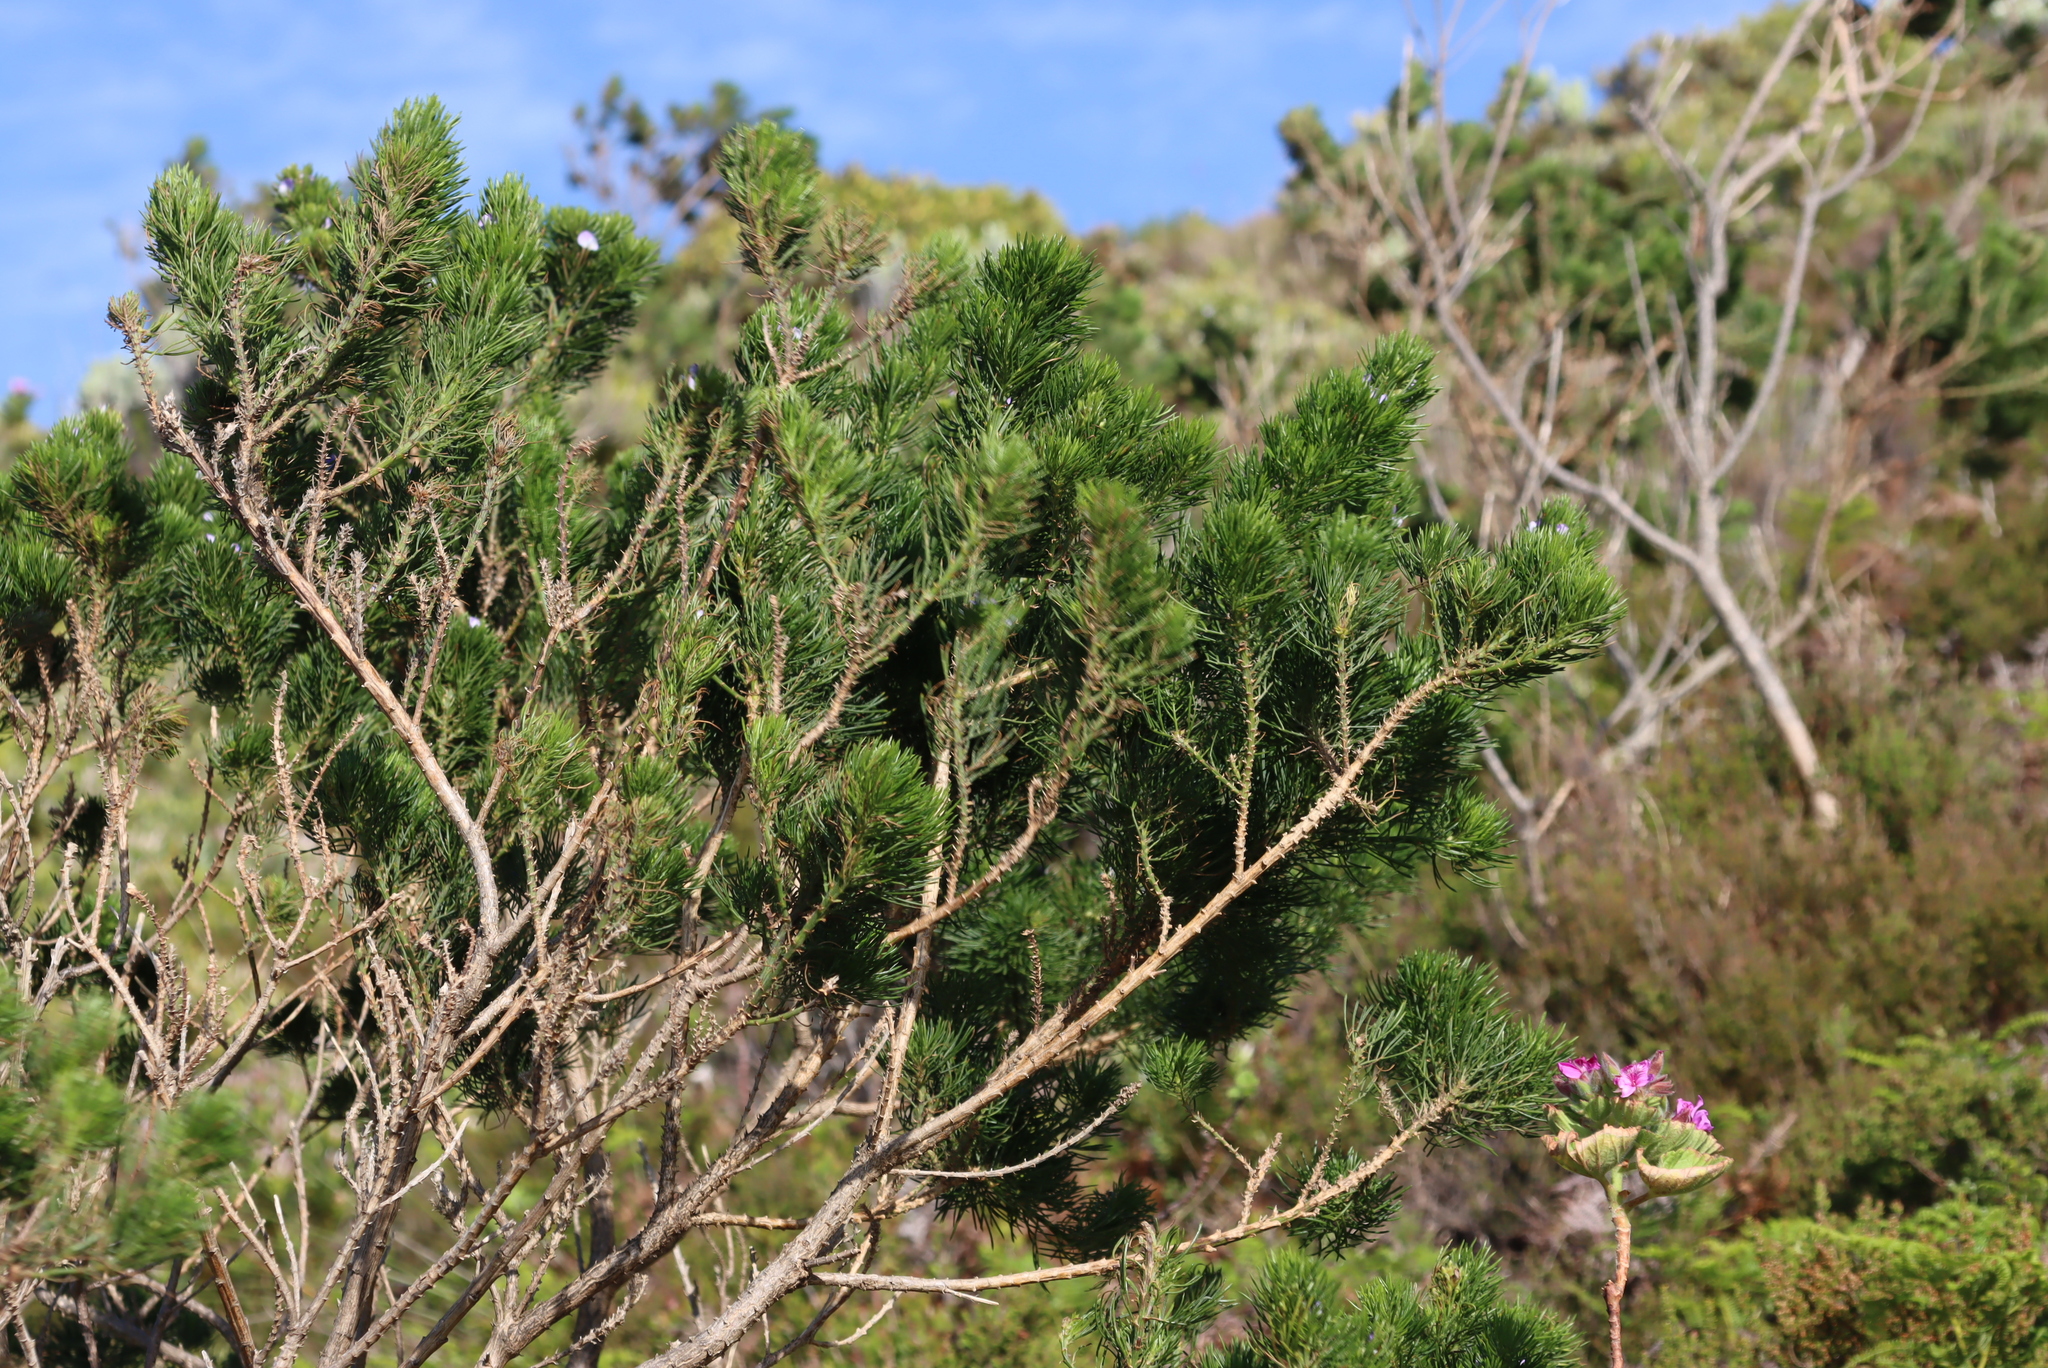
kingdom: Plantae
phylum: Tracheophyta
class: Magnoliopsida
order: Fabales
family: Fabaceae
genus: Psoralea
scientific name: Psoralea pinnata
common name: African scurfpea
